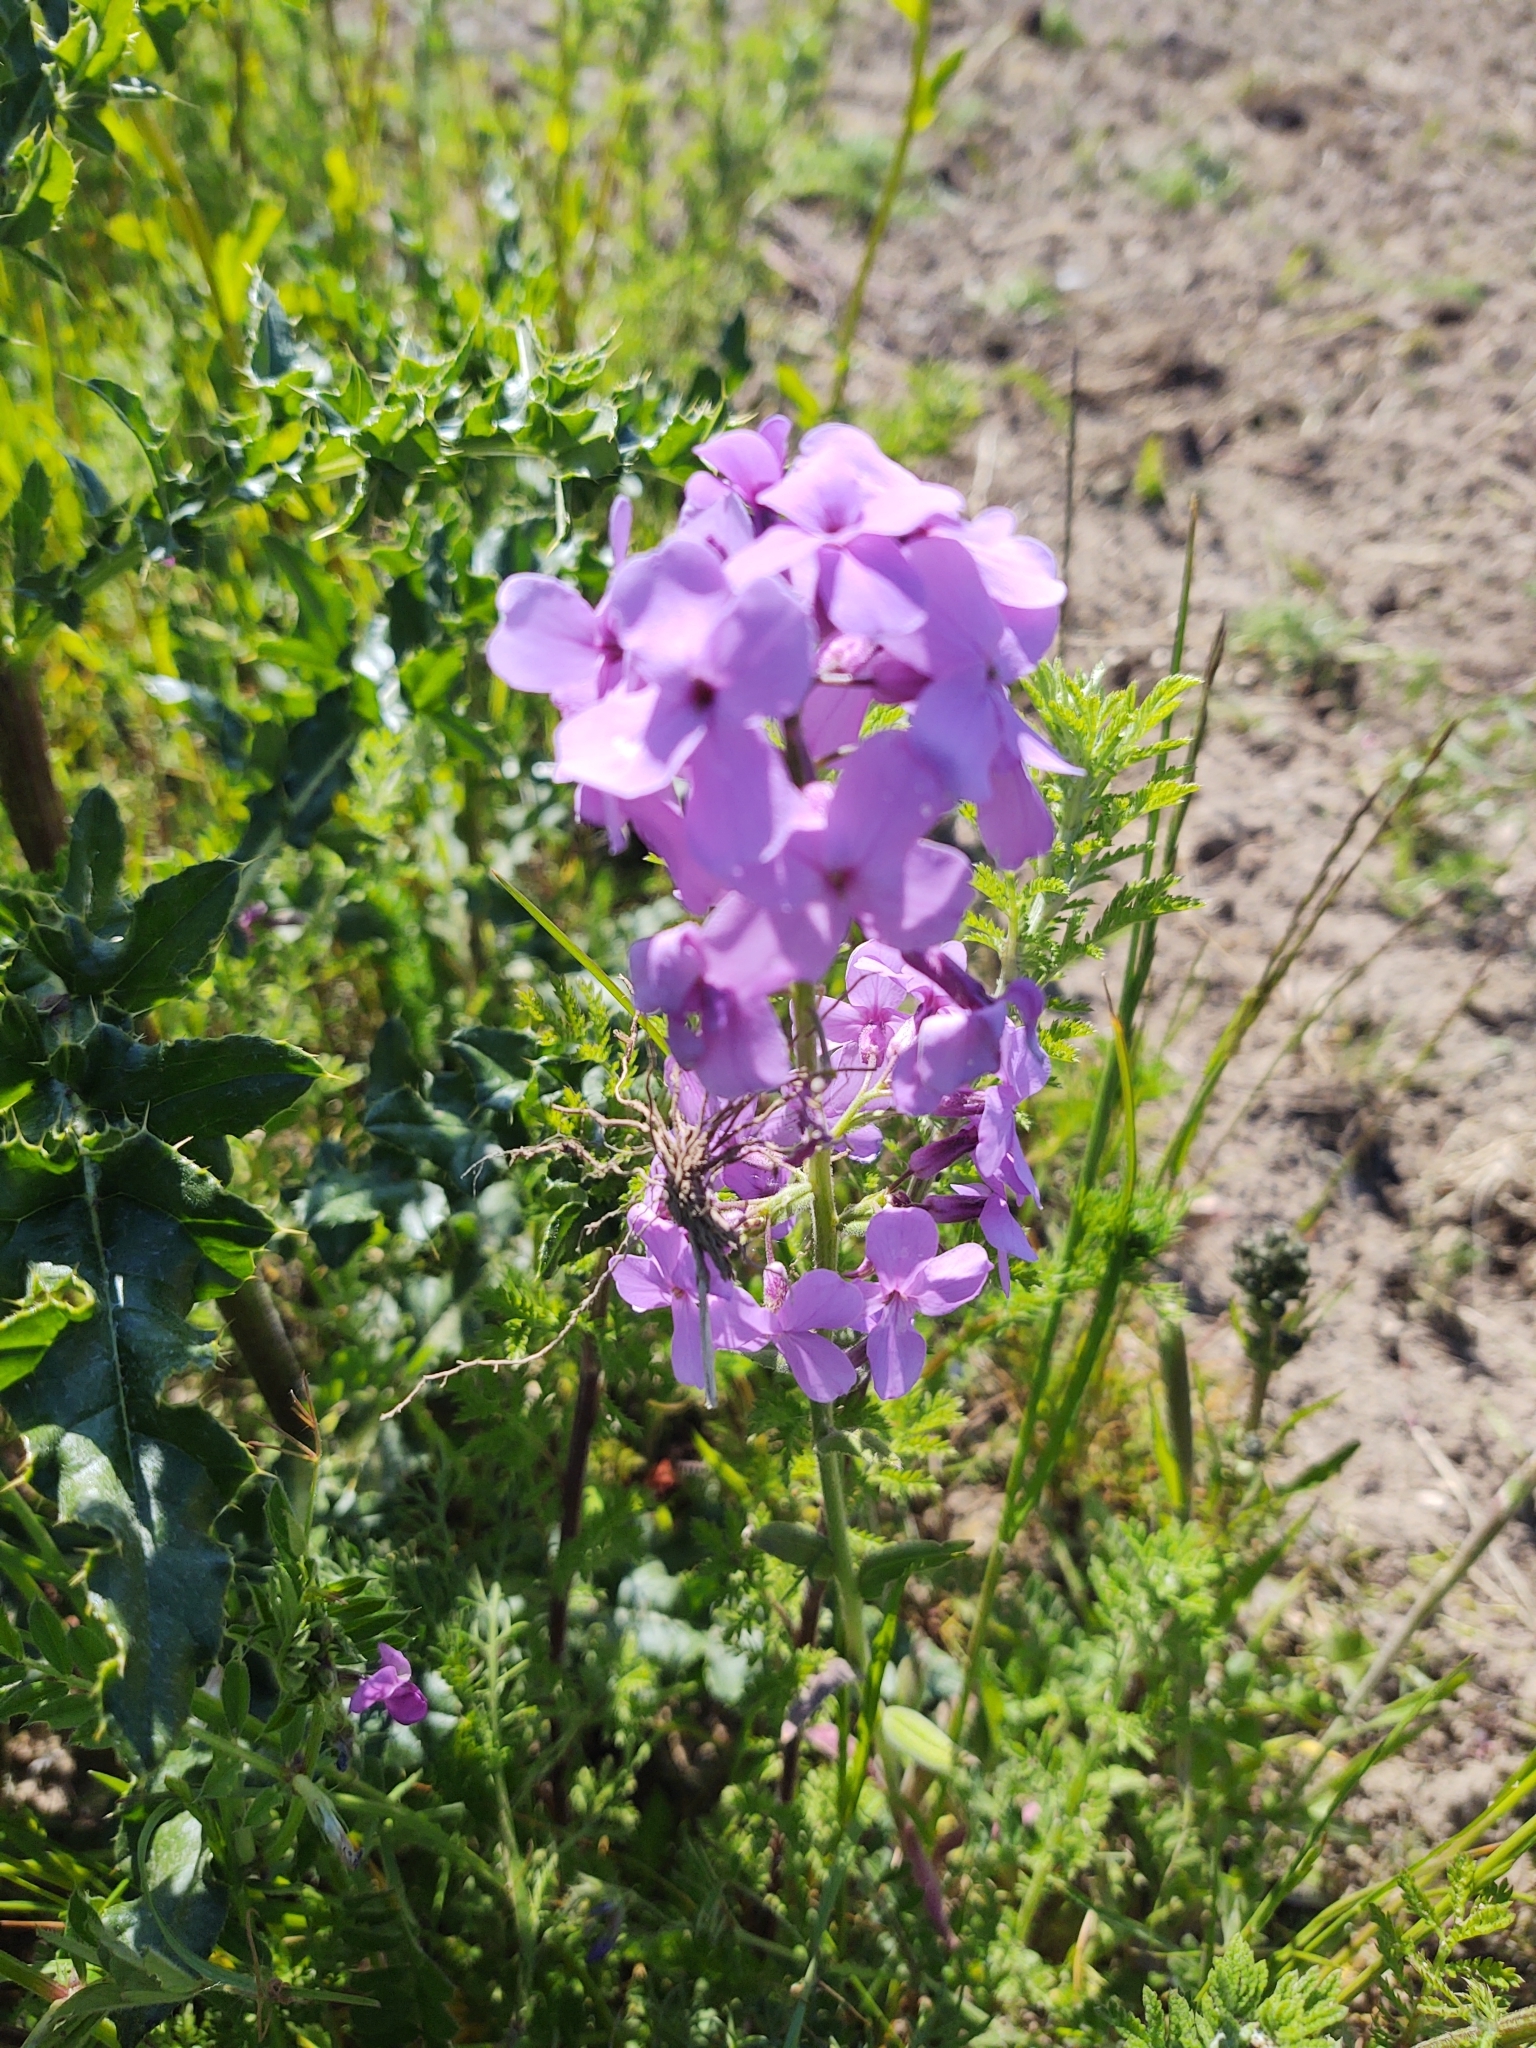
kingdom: Plantae
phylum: Tracheophyta
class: Magnoliopsida
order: Brassicales
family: Brassicaceae
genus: Lunaria
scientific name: Lunaria annua
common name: Honesty
